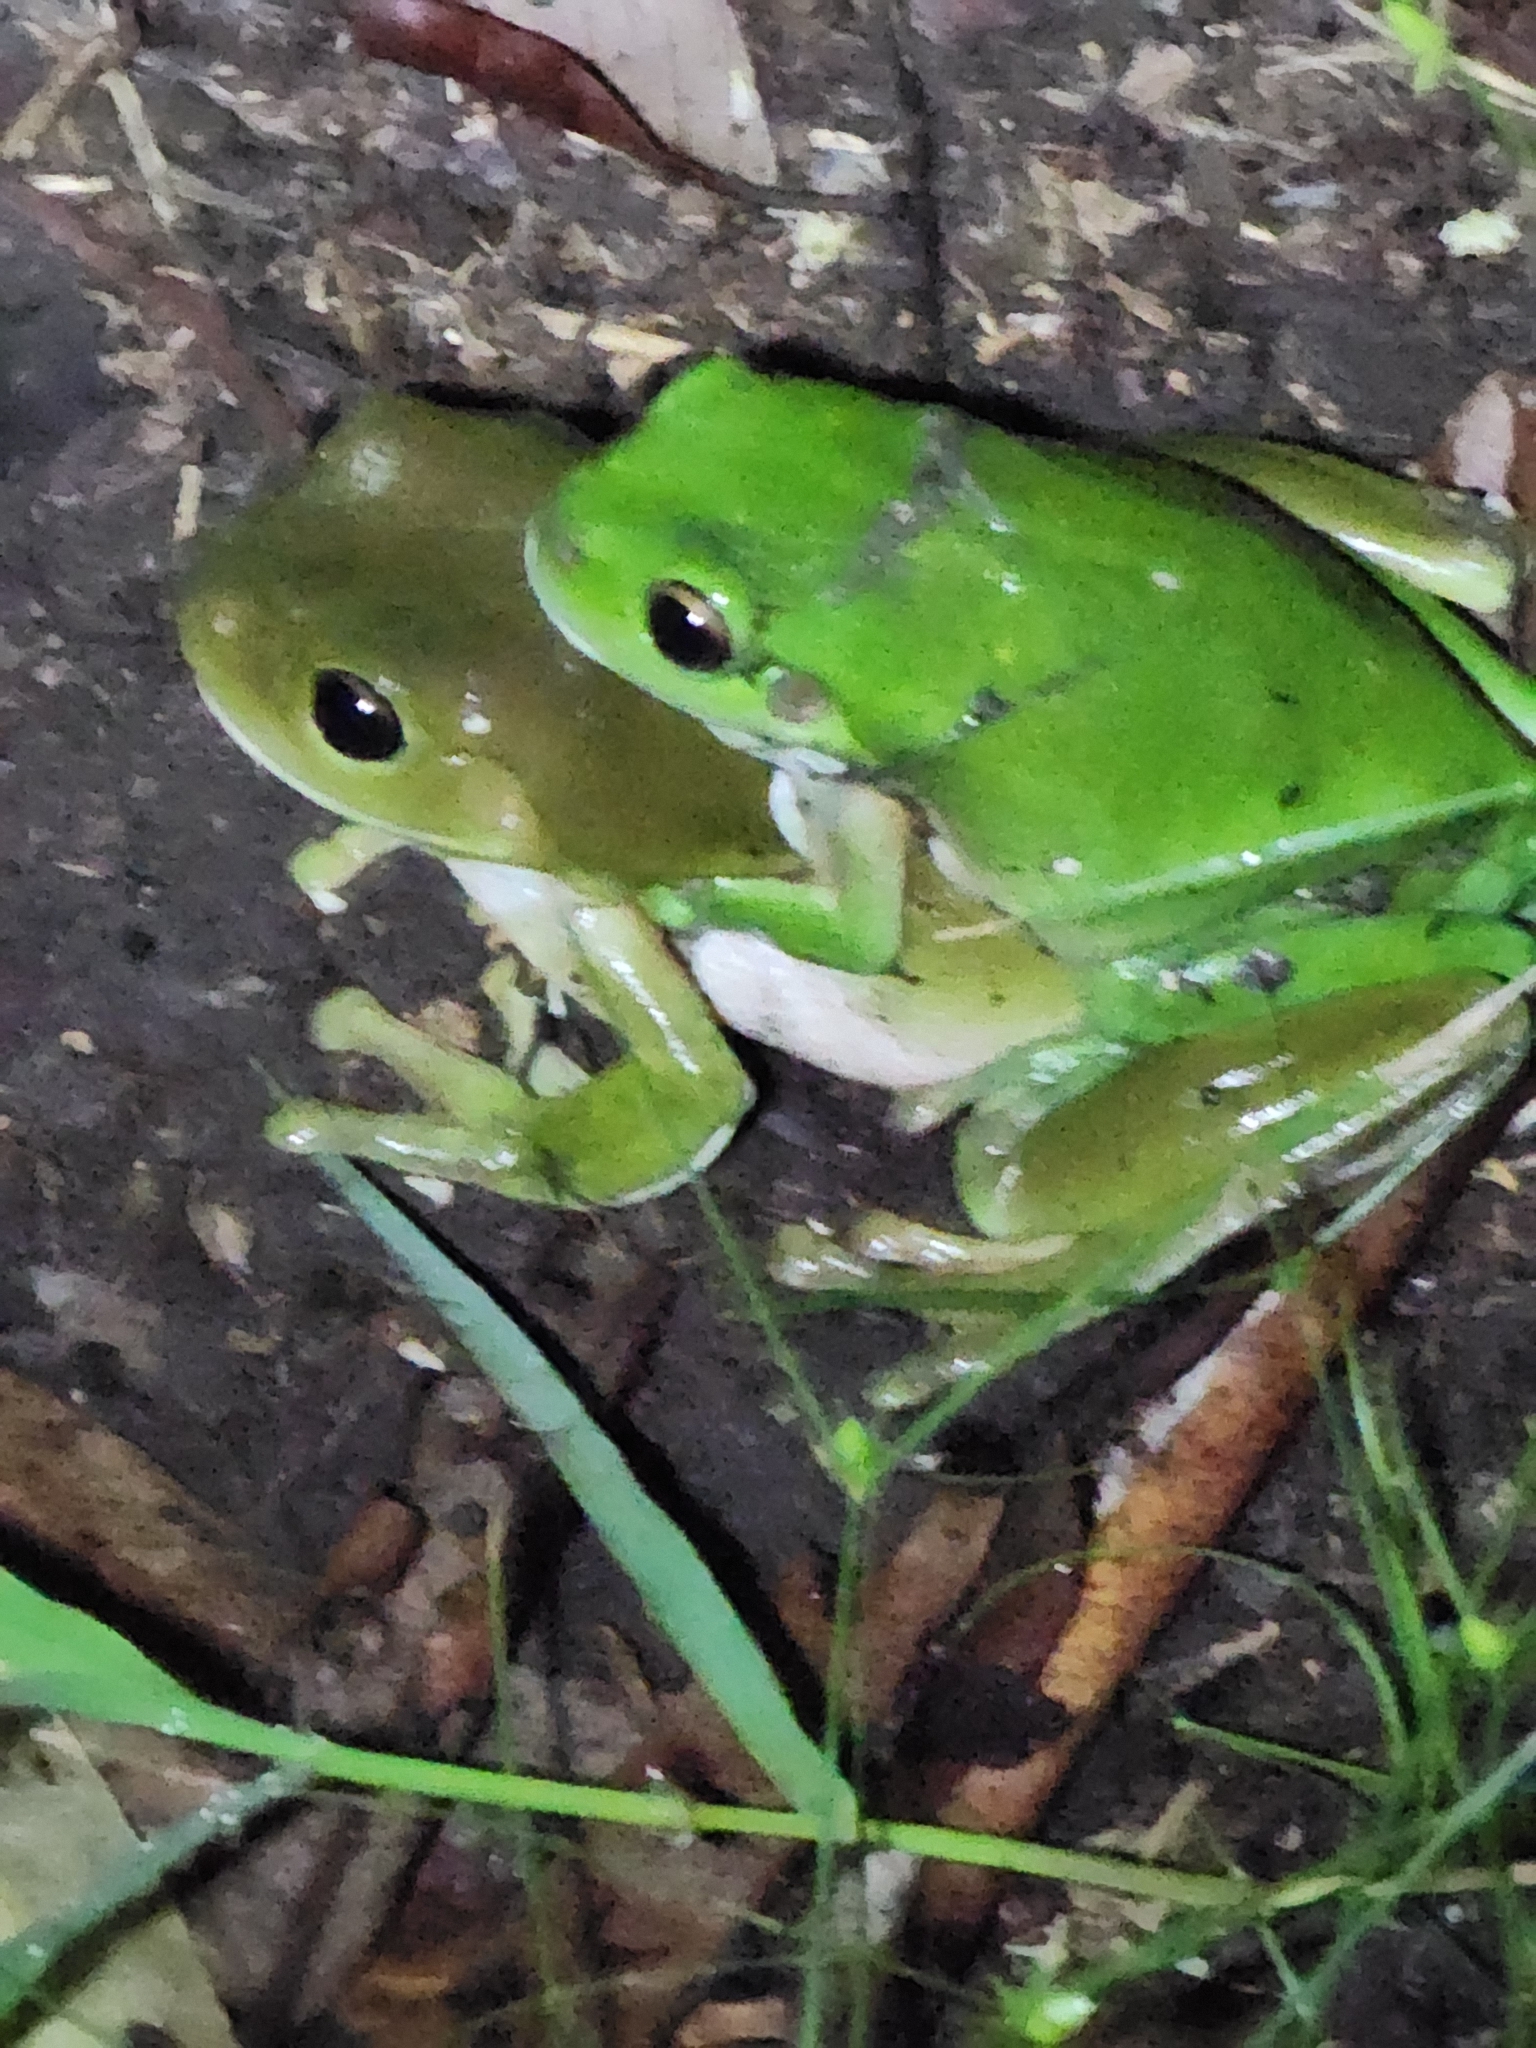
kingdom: Animalia
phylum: Chordata
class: Amphibia
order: Anura
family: Pelodryadidae
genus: Ranoidea
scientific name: Ranoidea caerulea
